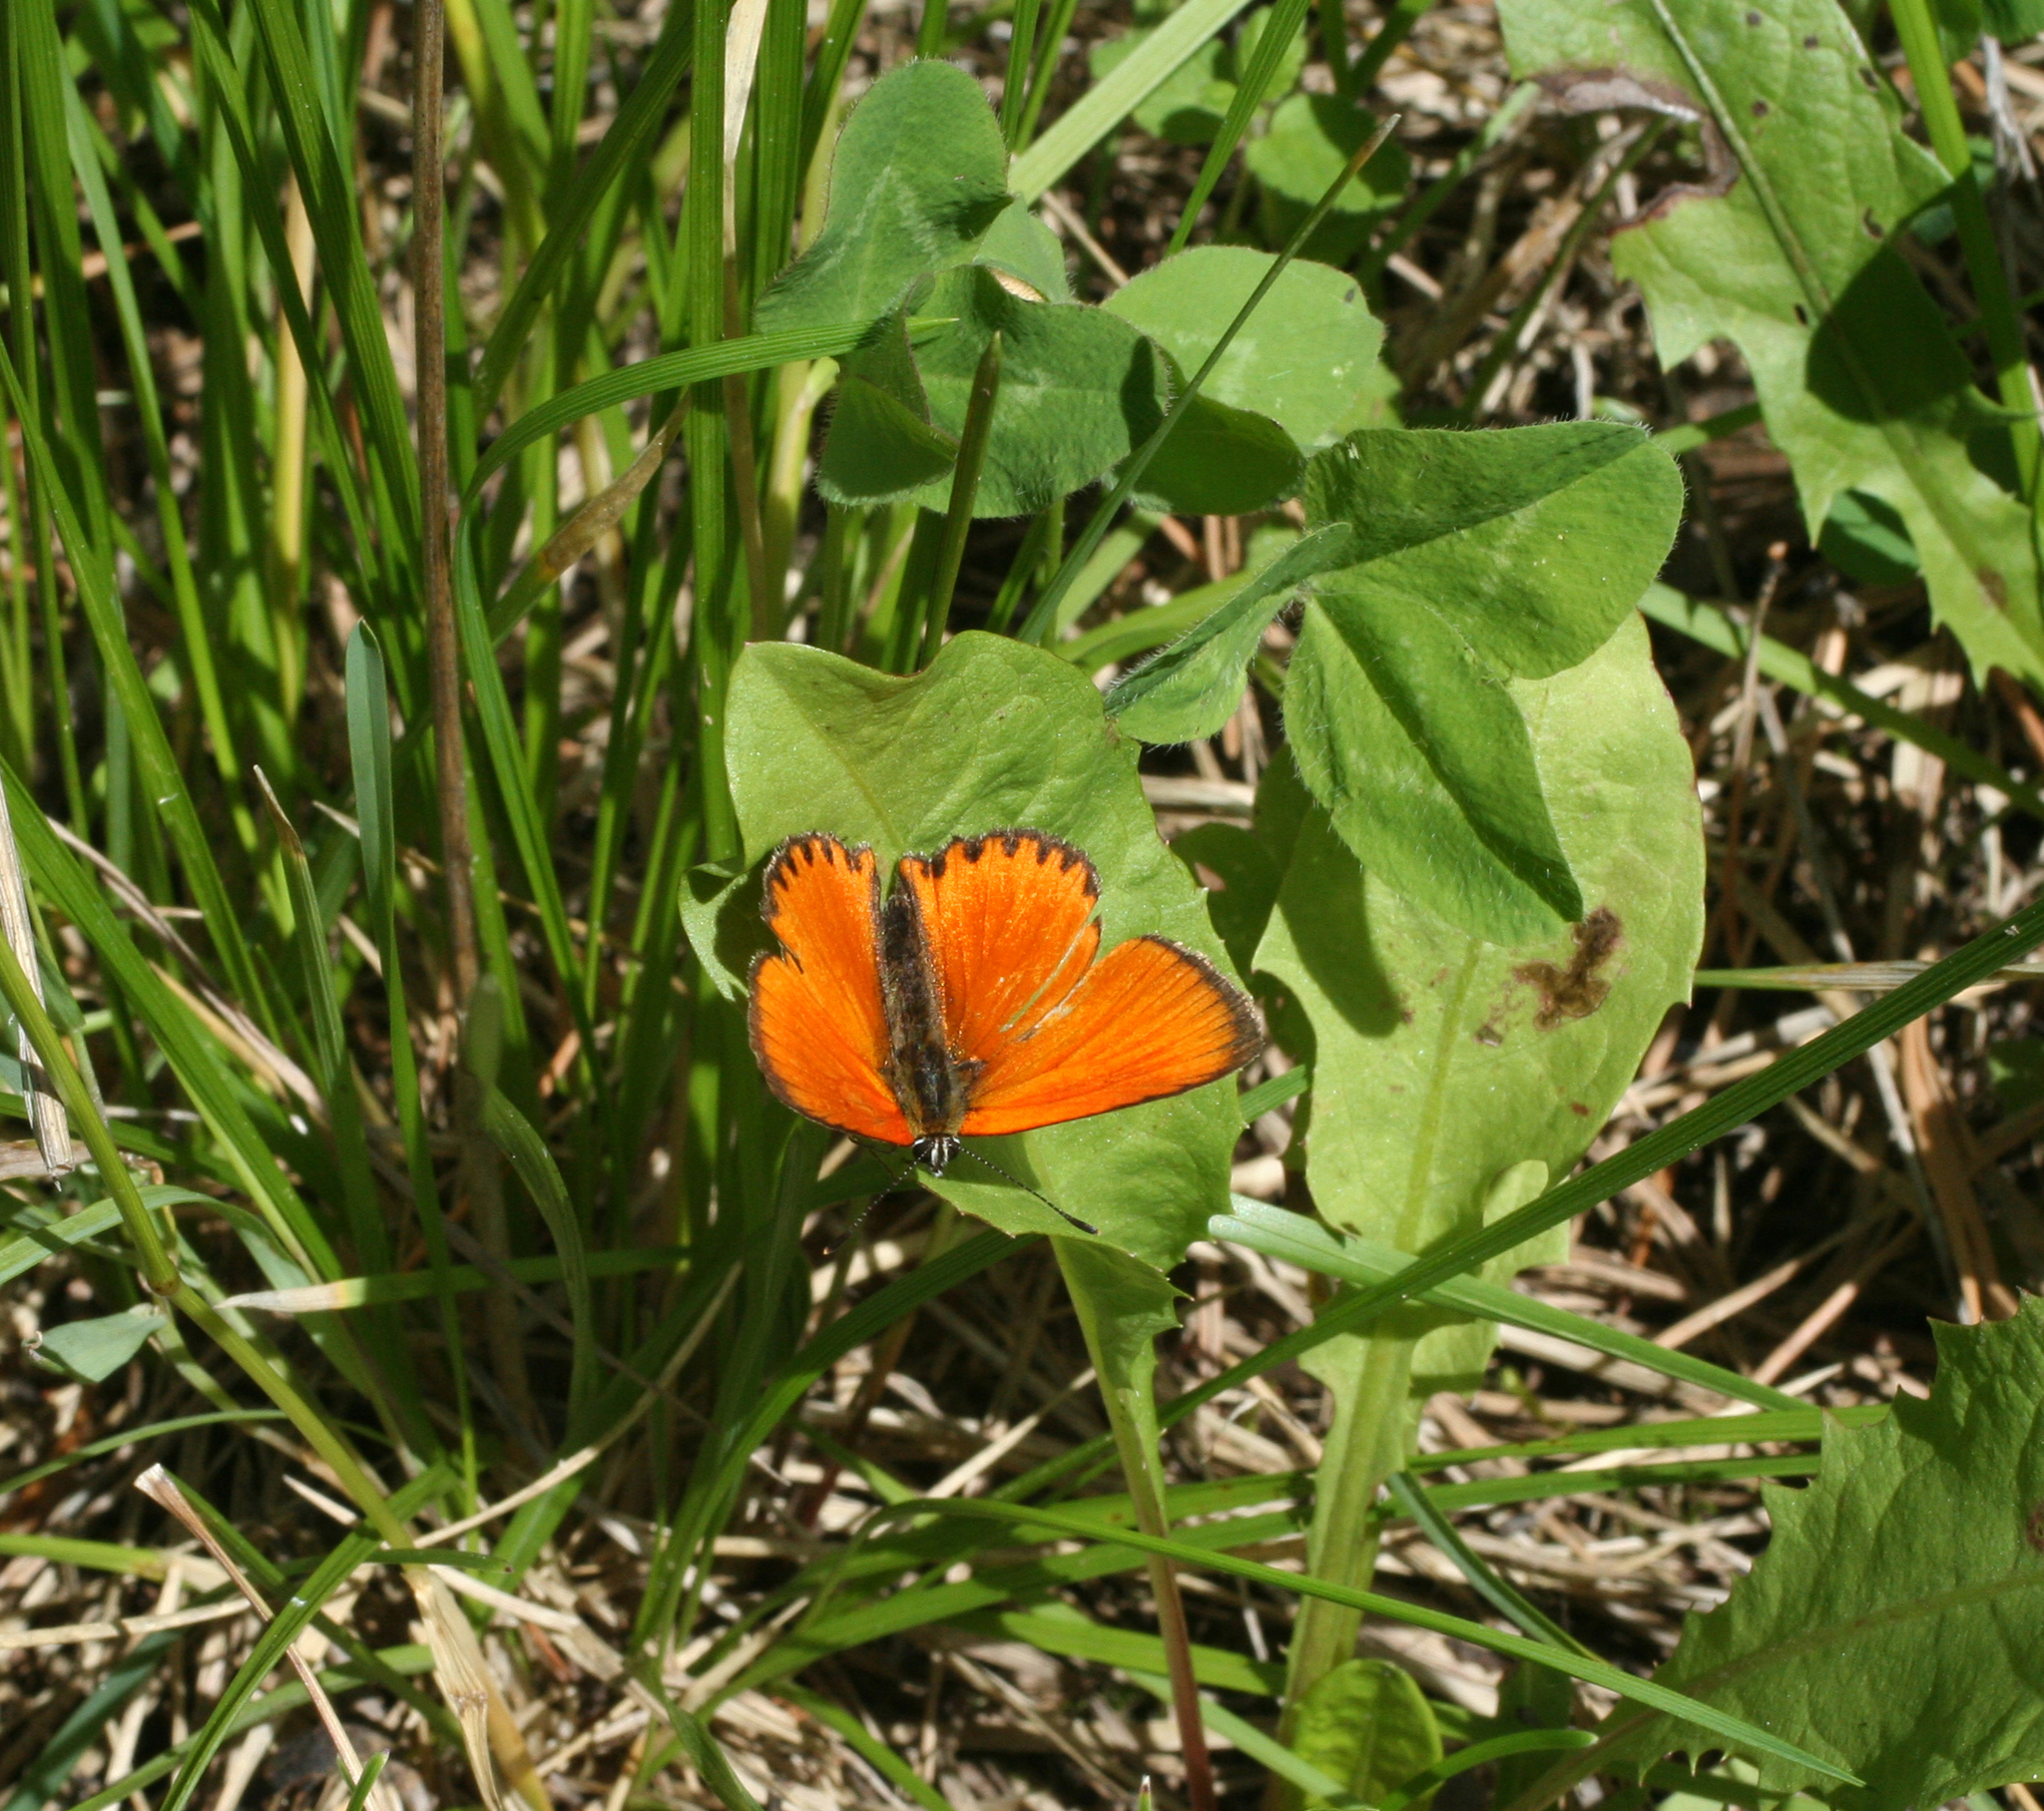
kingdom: Plantae
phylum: Tracheophyta
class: Magnoliopsida
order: Fabales
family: Fabaceae
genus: Trifolium
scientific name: Trifolium pratense
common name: Red clover
